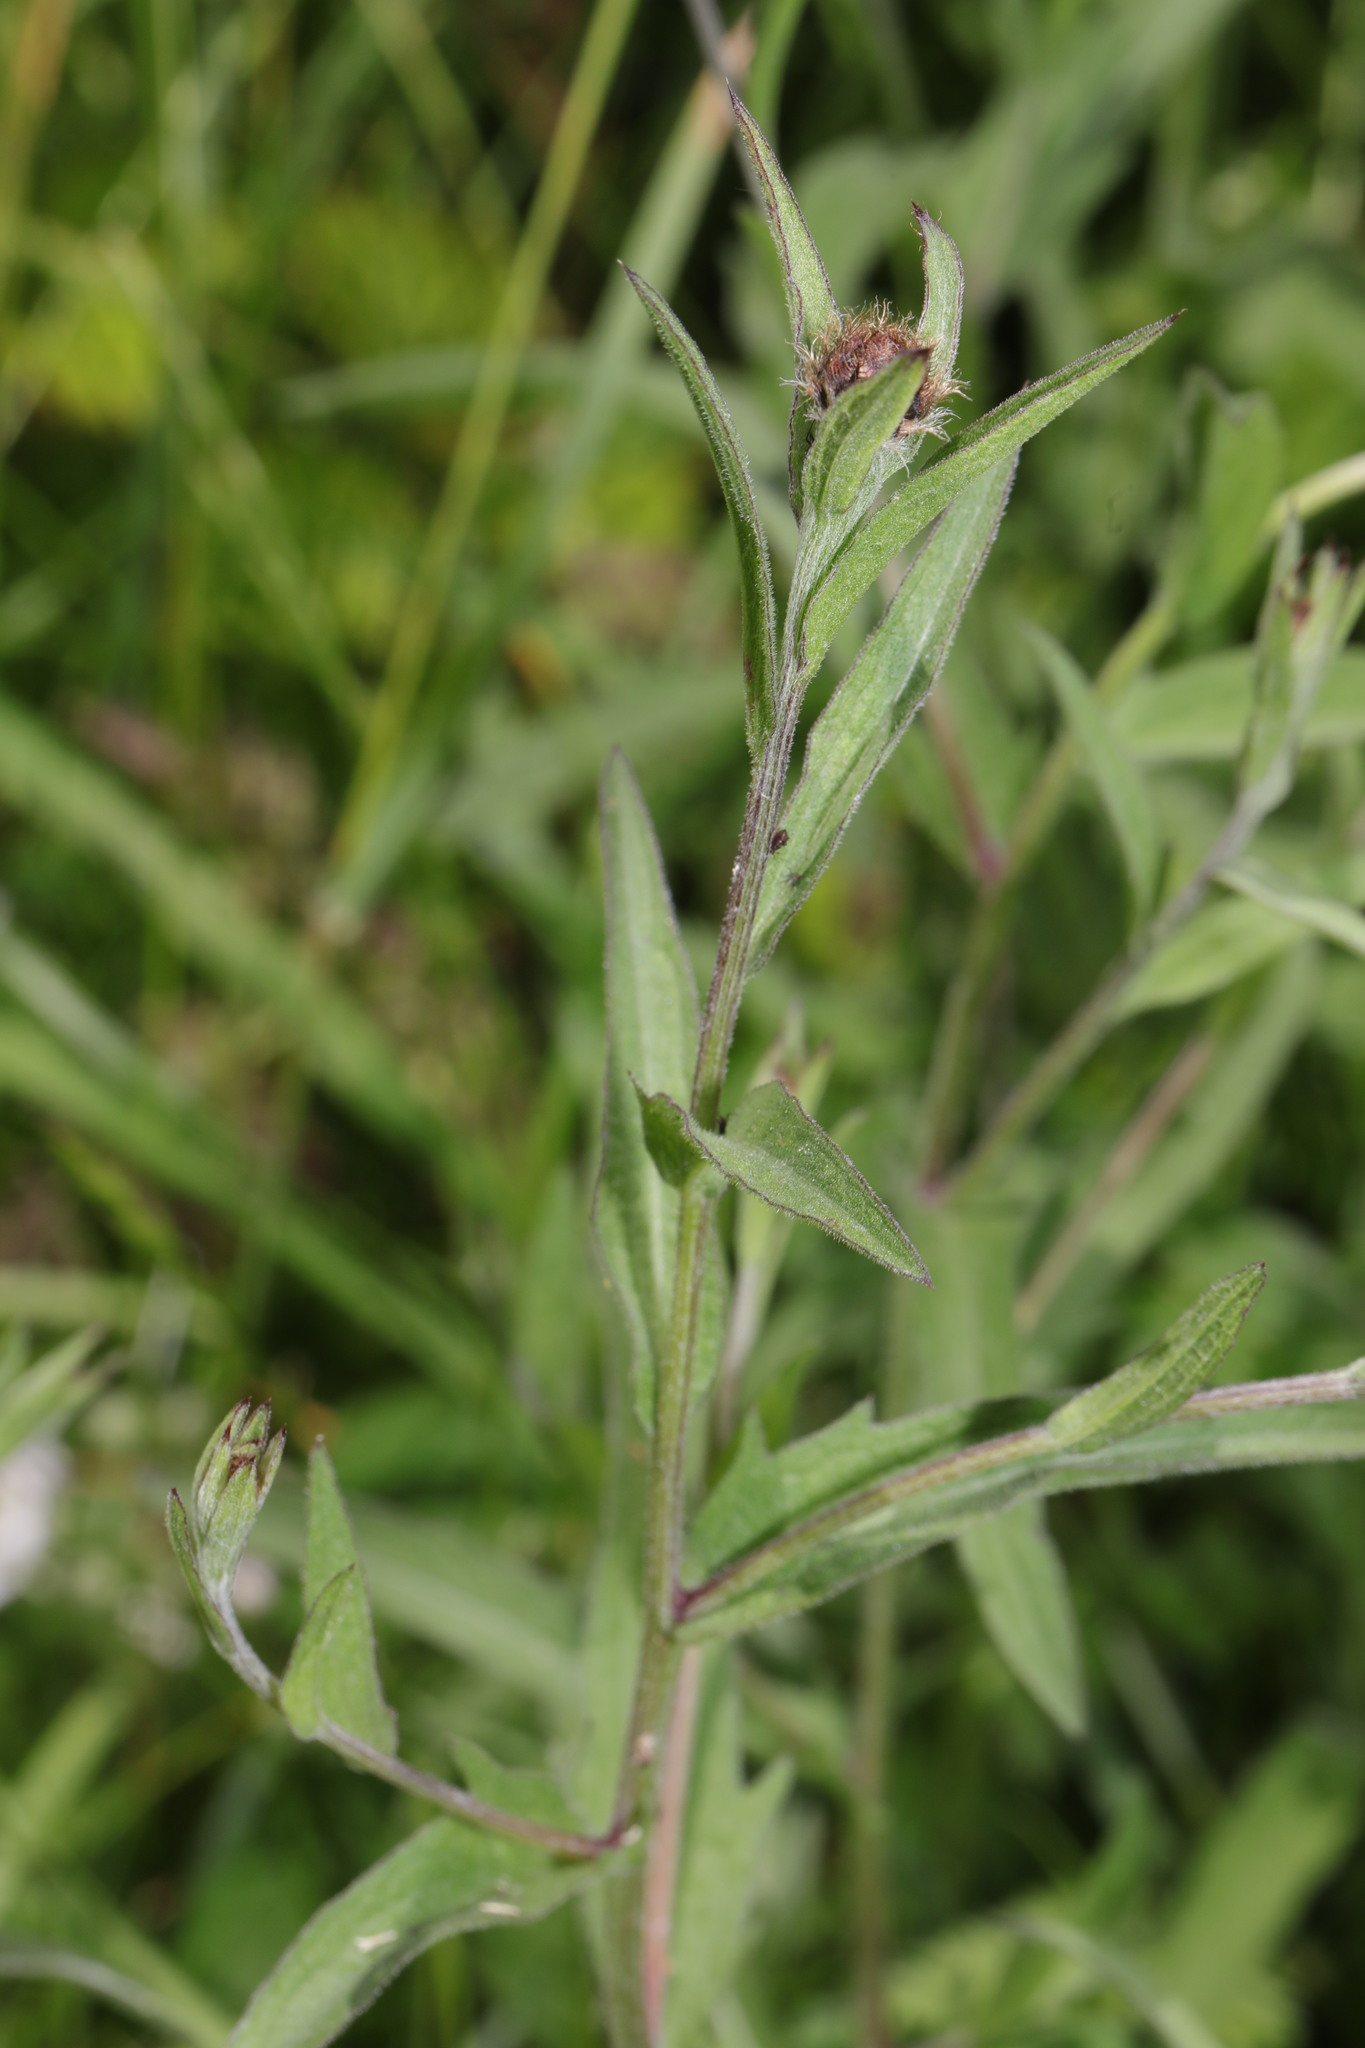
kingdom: Plantae
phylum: Tracheophyta
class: Magnoliopsida
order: Asterales
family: Asteraceae
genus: Centaurea
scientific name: Centaurea nigra
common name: Lesser knapweed
